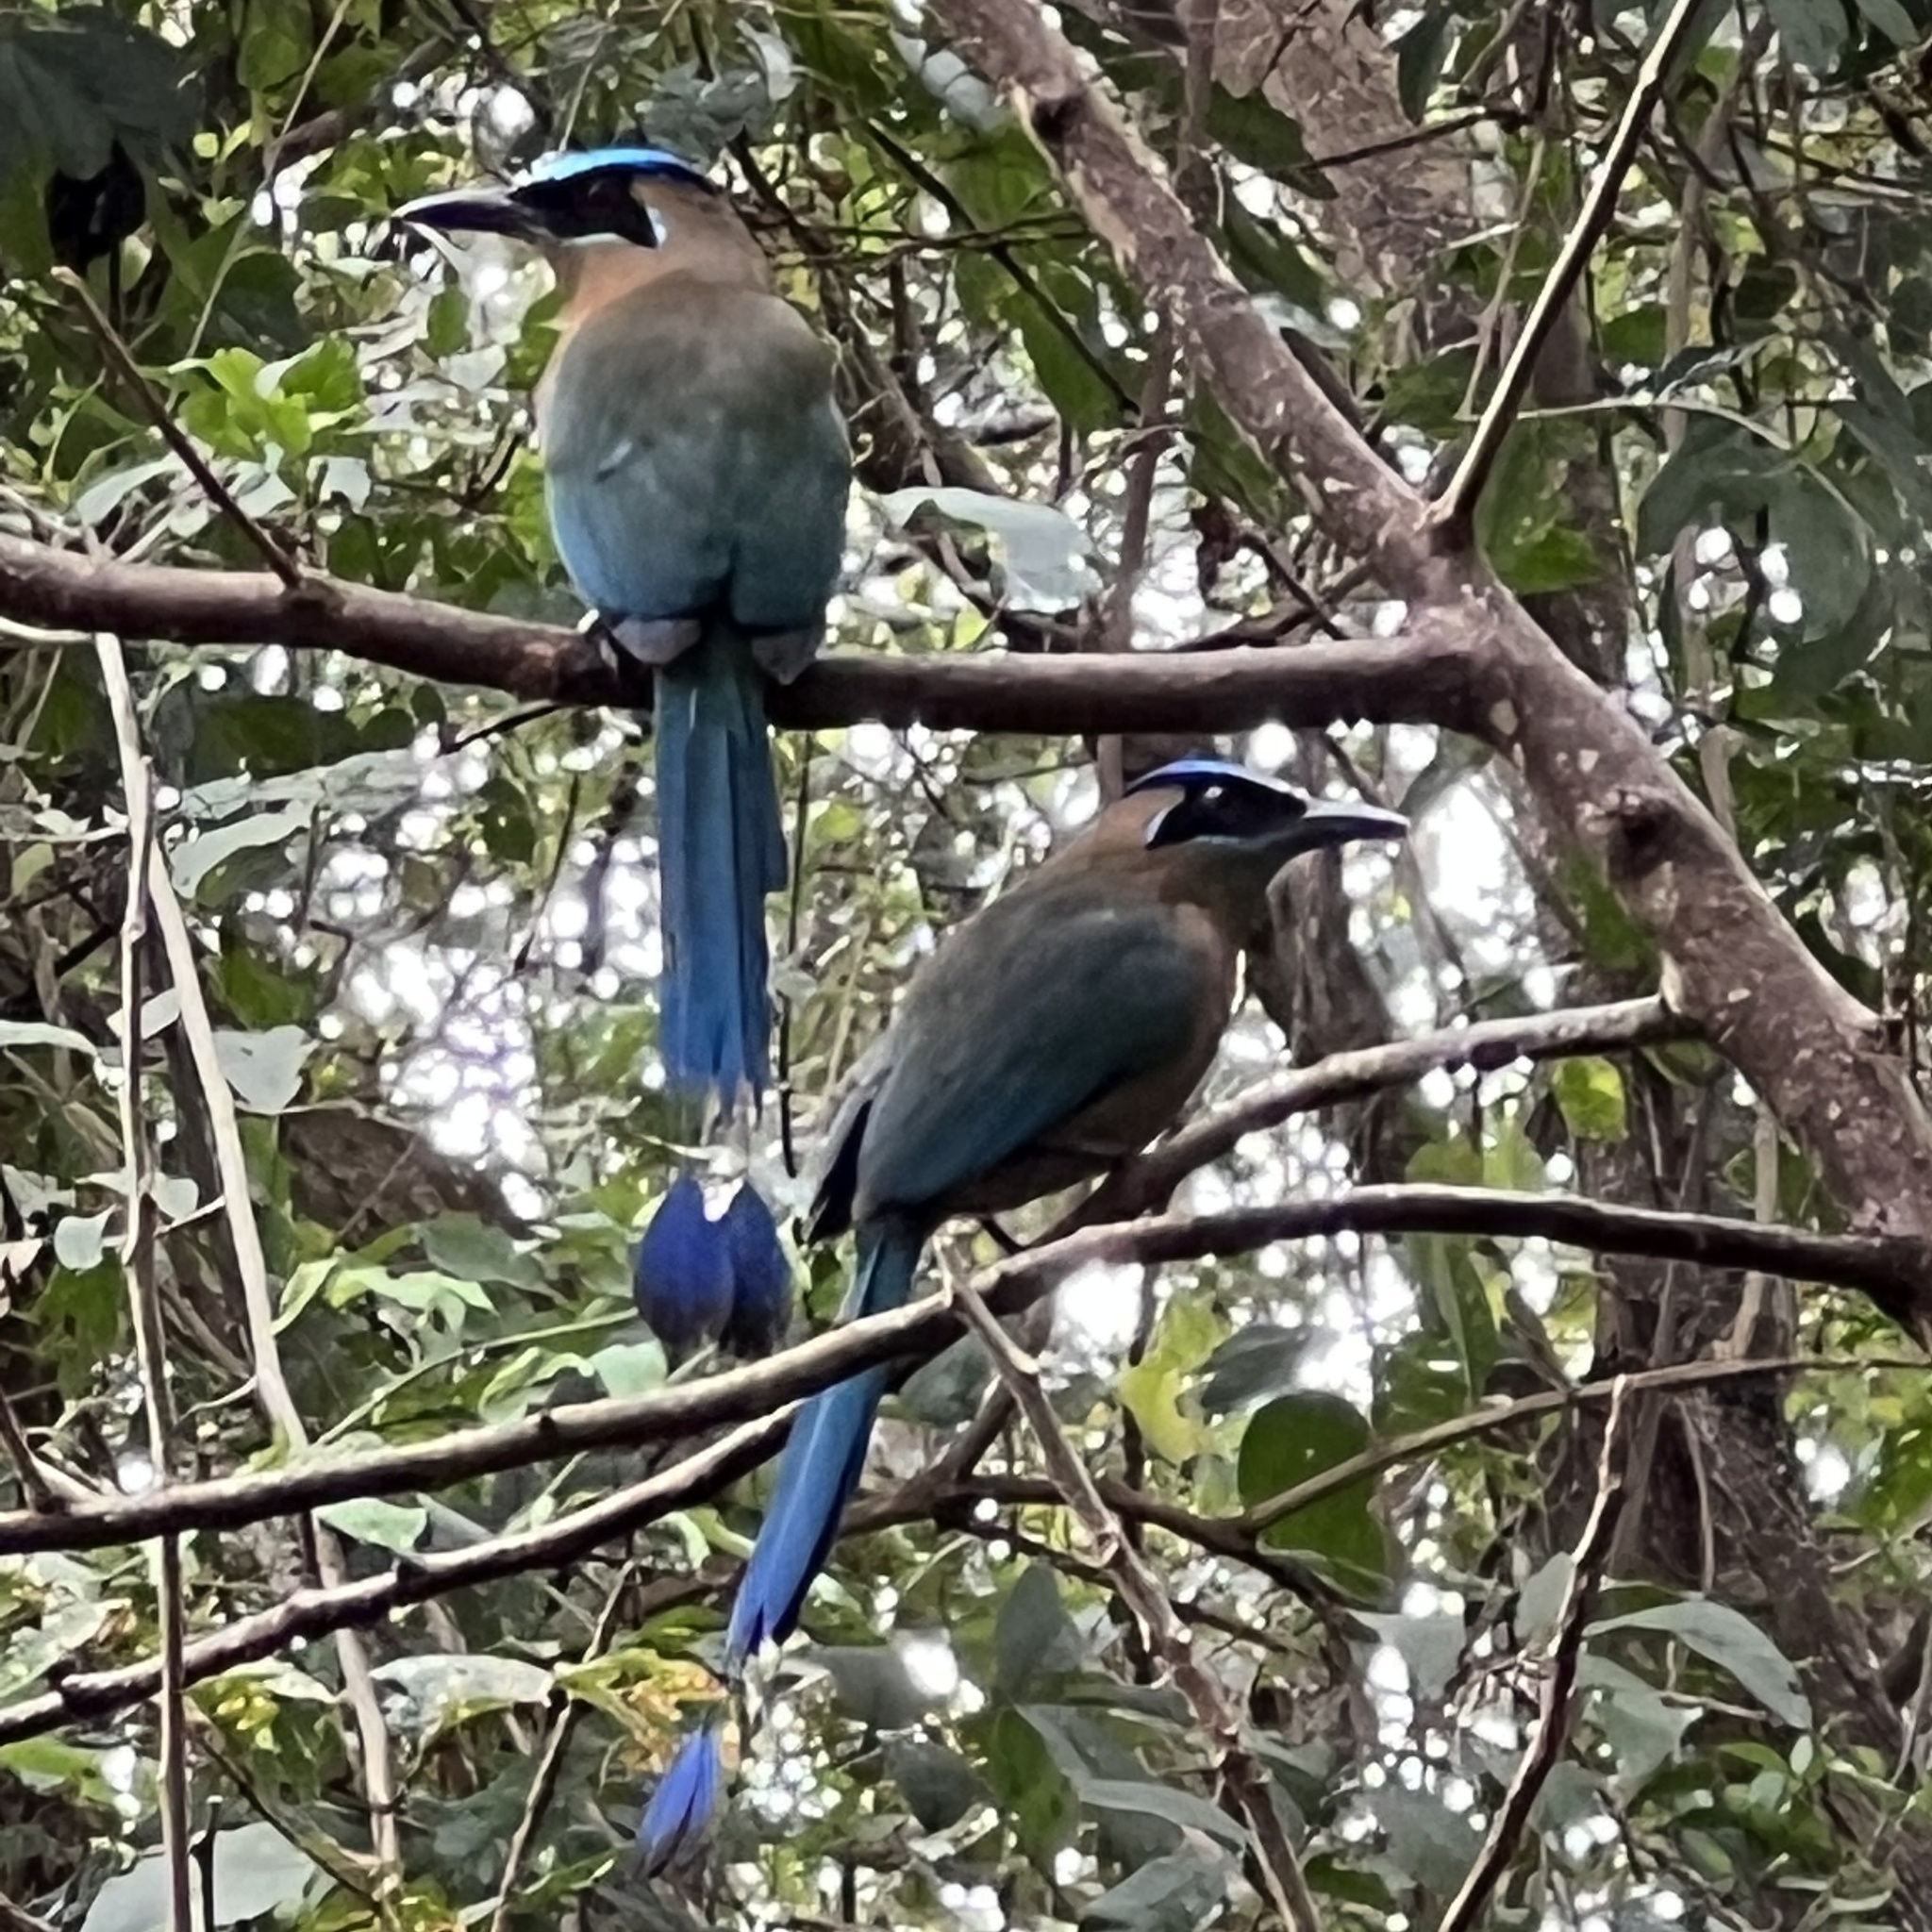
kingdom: Animalia
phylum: Chordata
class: Aves
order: Coraciiformes
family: Momotidae
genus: Momotus
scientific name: Momotus lessonii
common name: Lesson's motmot
